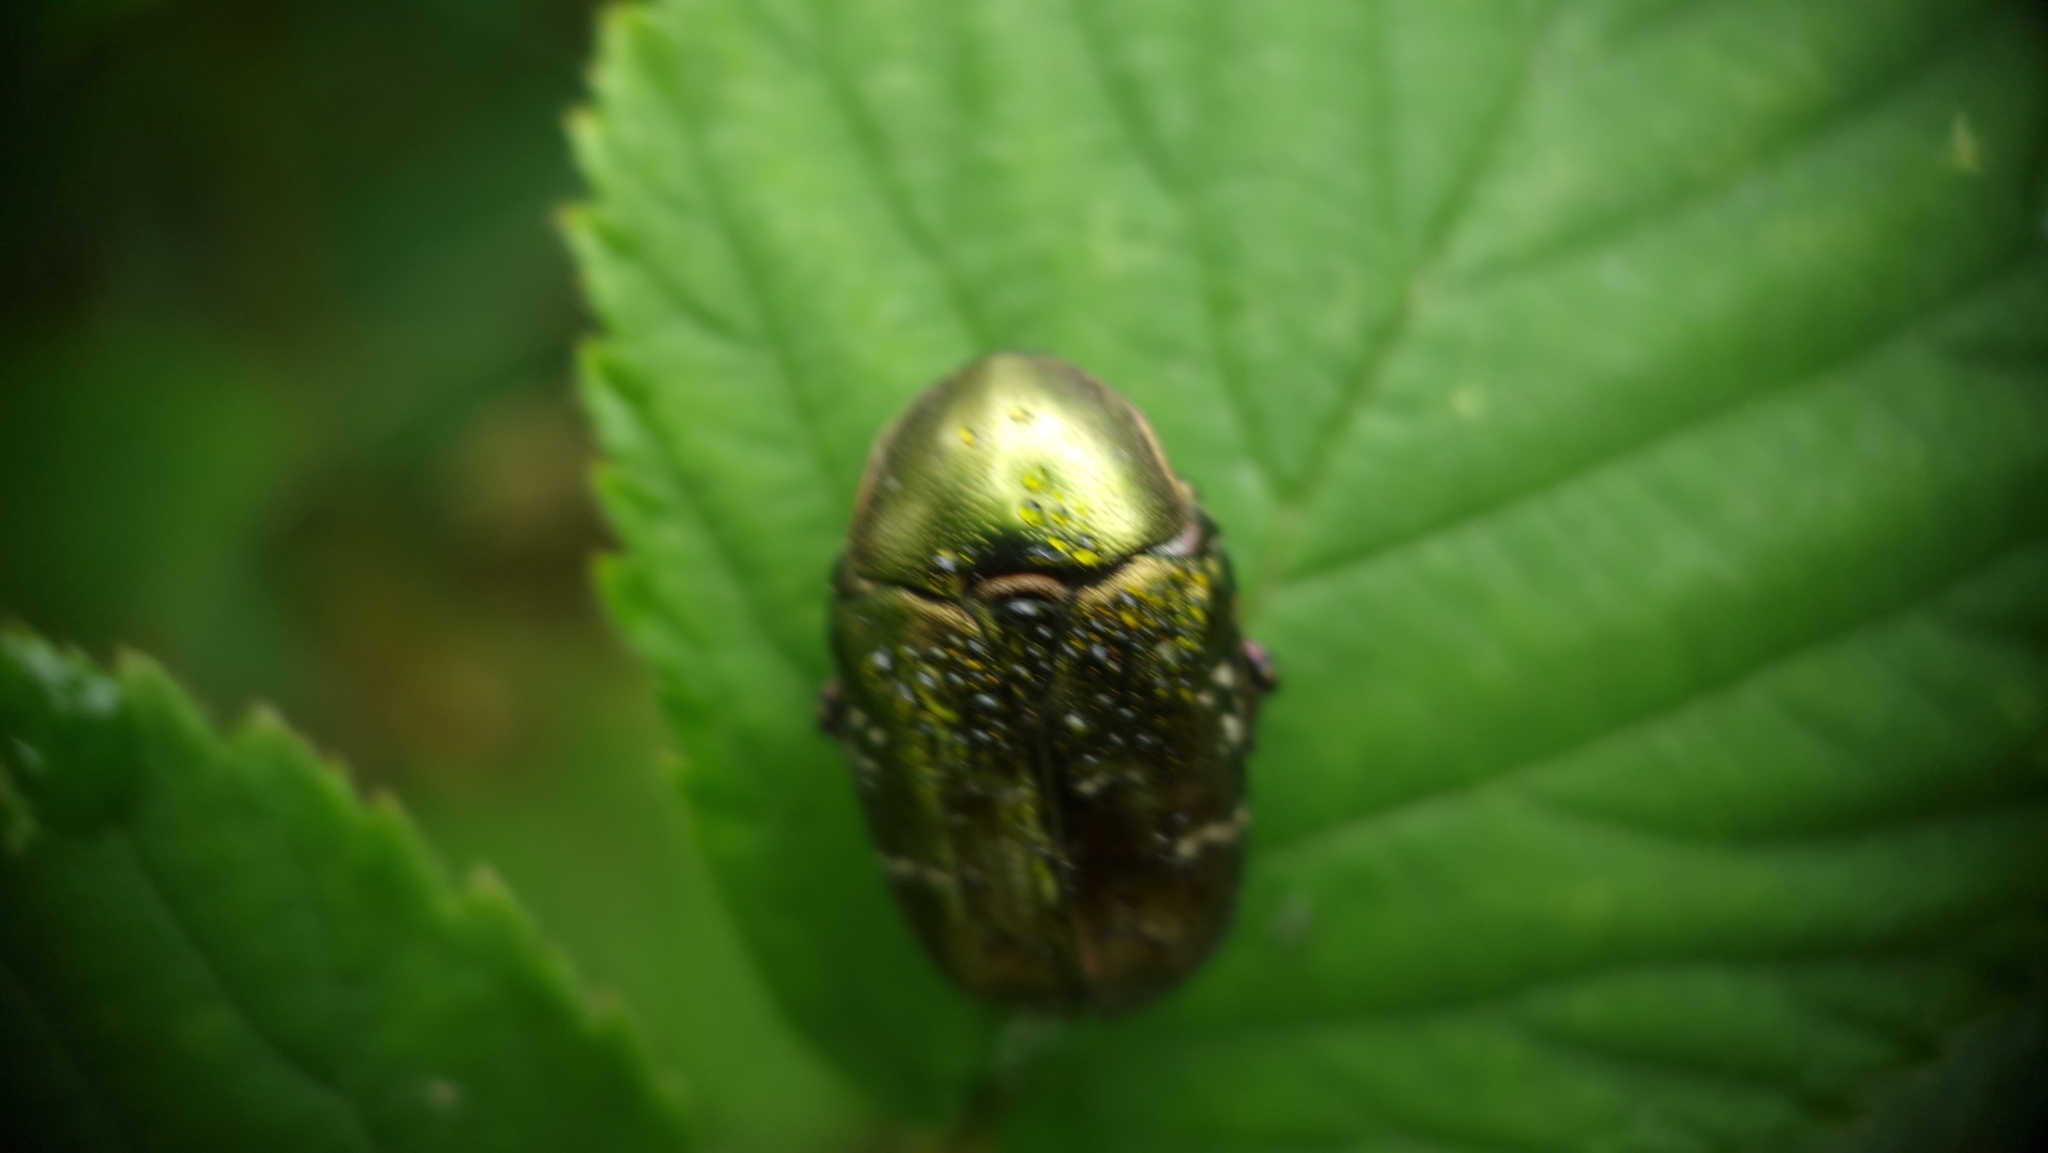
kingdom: Animalia
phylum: Arthropoda
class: Insecta
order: Coleoptera
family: Scarabaeidae
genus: Protaetia
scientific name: Protaetia cuprea
